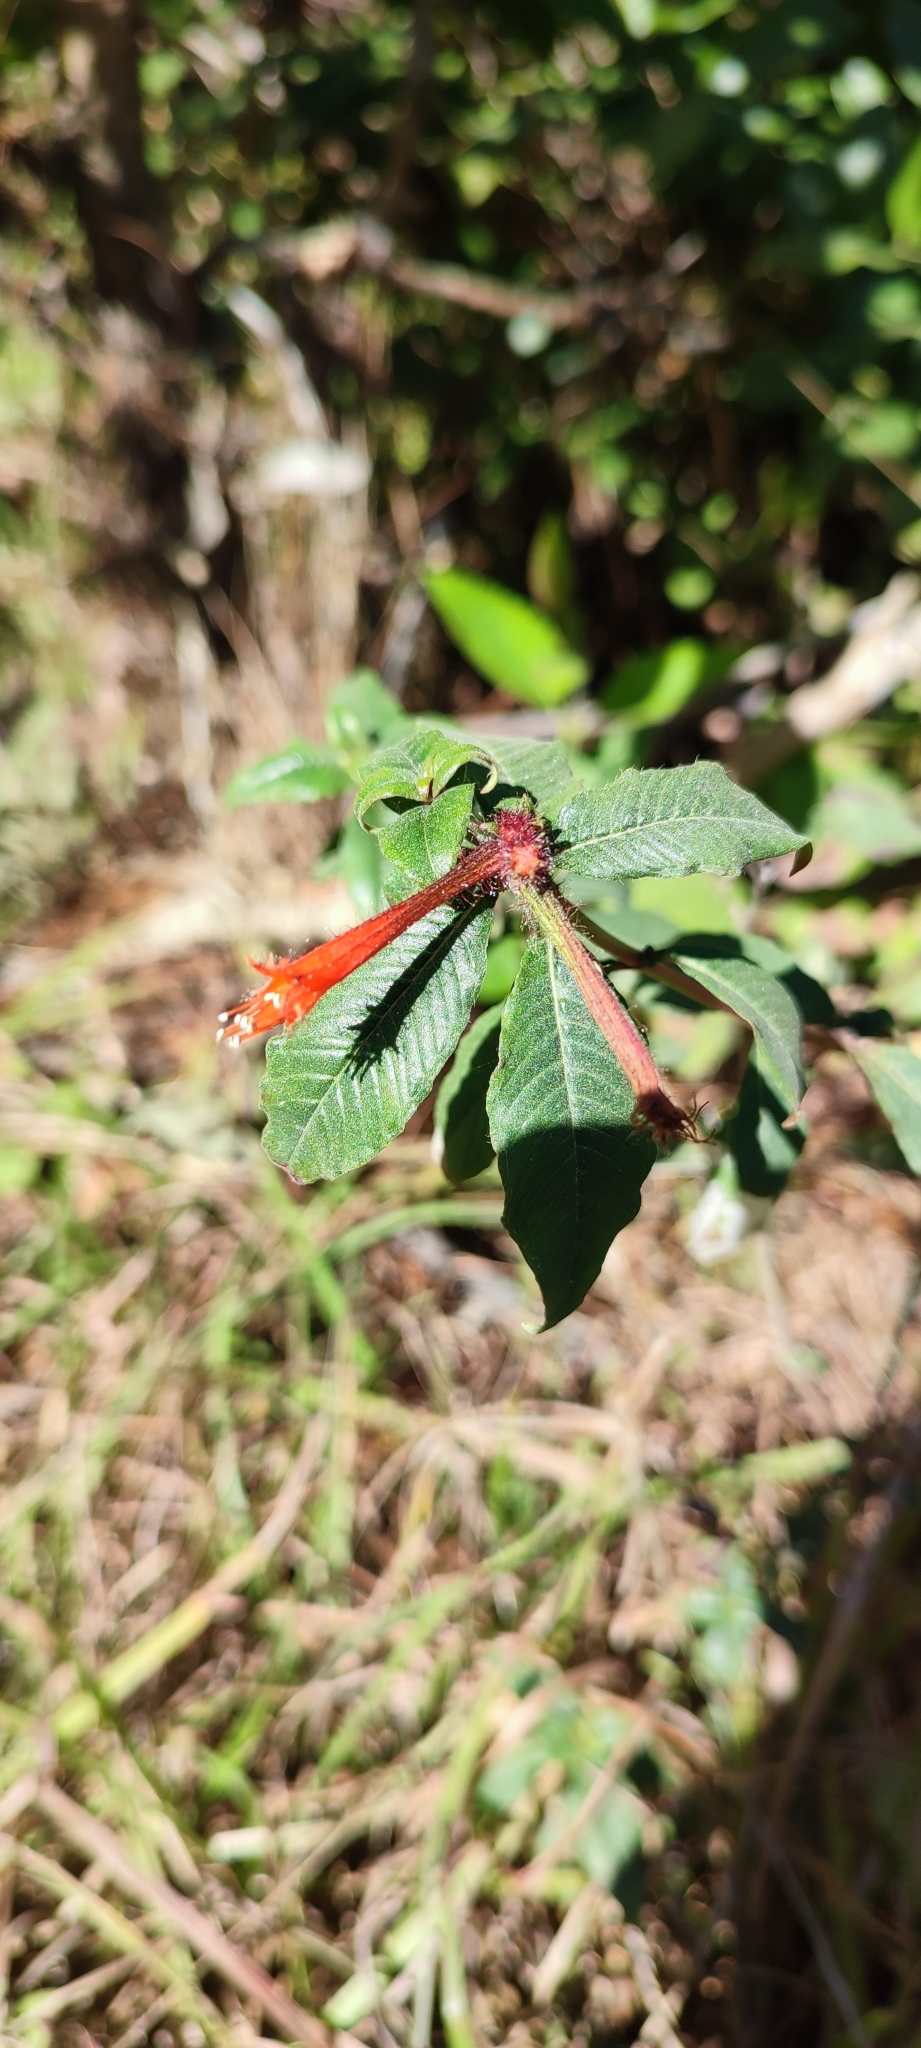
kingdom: Plantae
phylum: Tracheophyta
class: Magnoliopsida
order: Myrtales
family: Lythraceae
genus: Cuphea
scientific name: Cuphea appendiculata
